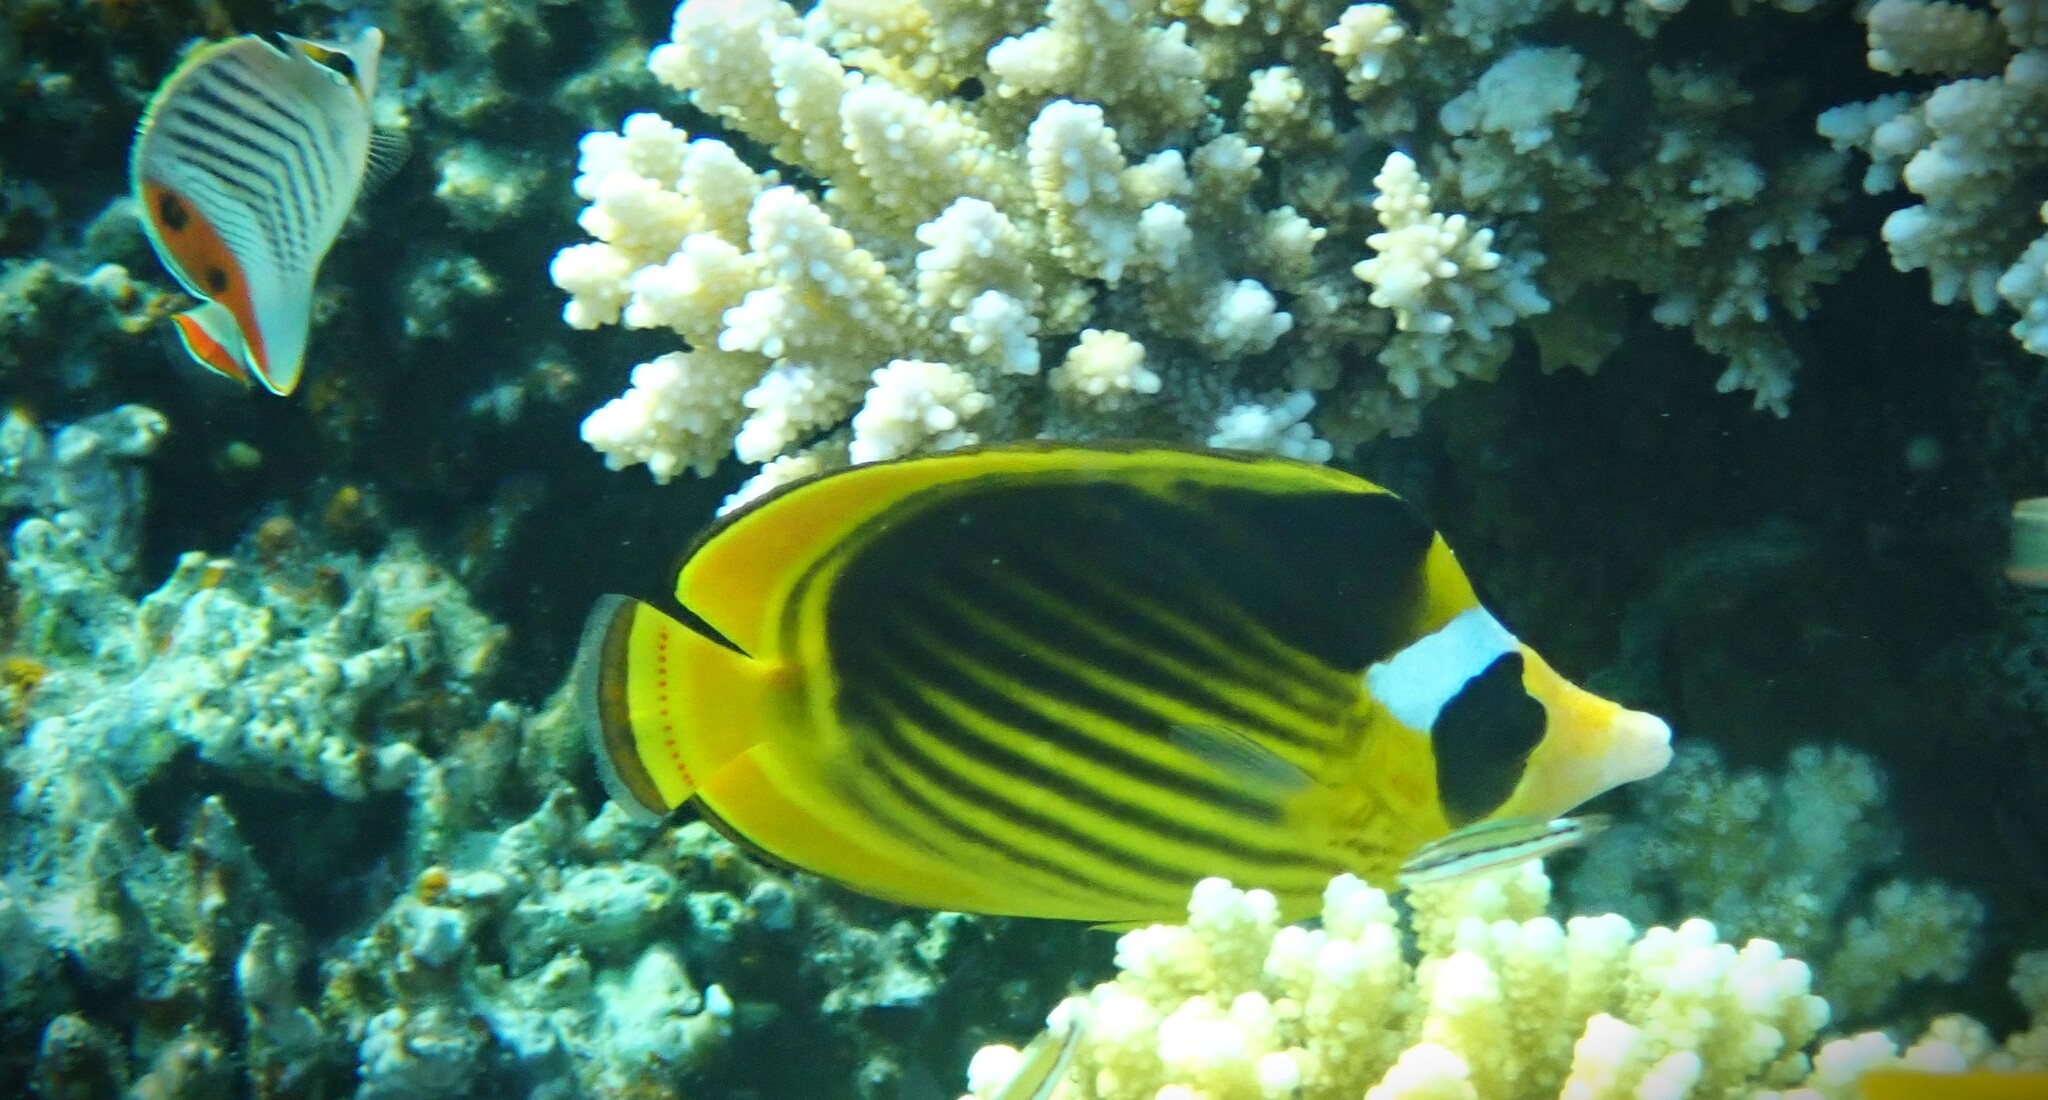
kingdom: Animalia
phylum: Chordata
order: Perciformes
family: Chaetodontidae
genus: Chaetodon
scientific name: Chaetodon fasciatus
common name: Diagonal butterflyfish
